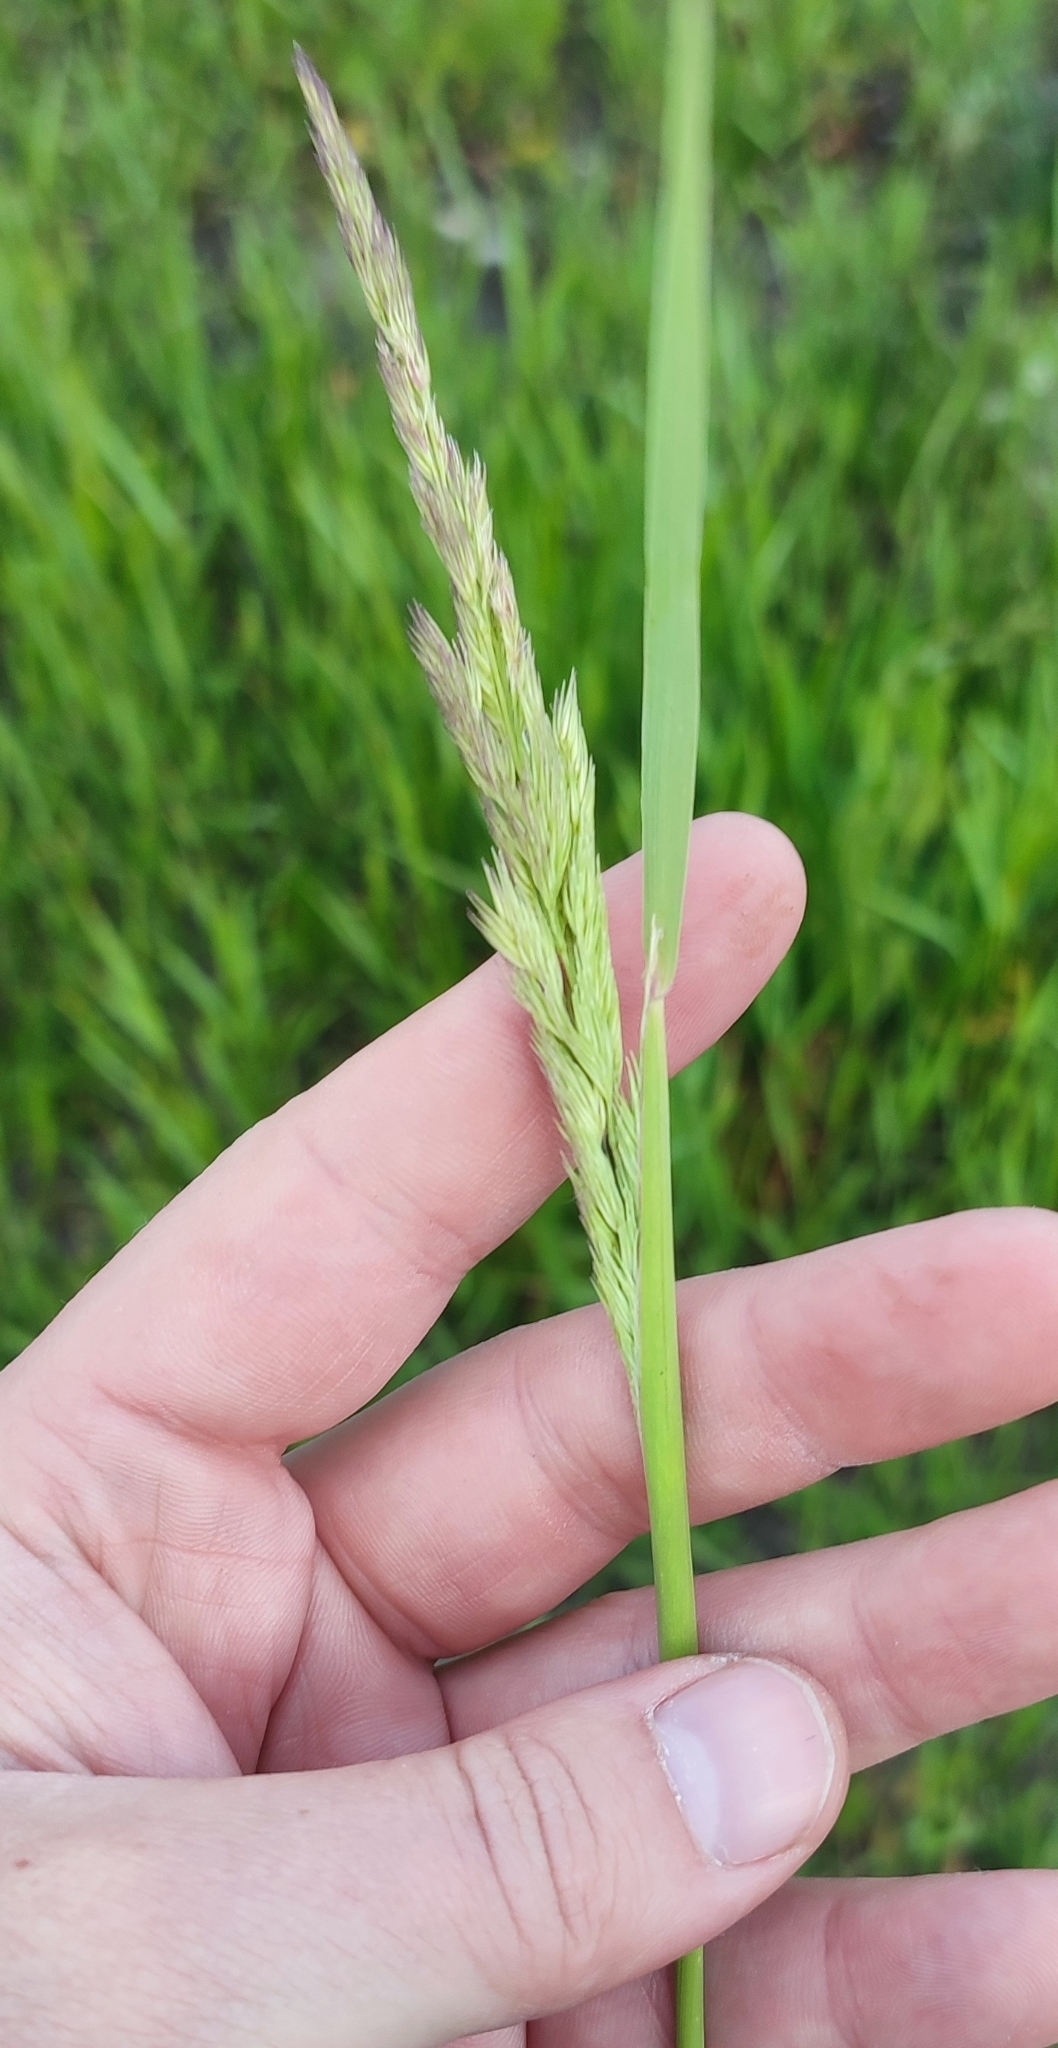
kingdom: Plantae
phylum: Tracheophyta
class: Liliopsida
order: Poales
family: Poaceae
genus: Calamagrostis
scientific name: Calamagrostis epigejos
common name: Wood small-reed
